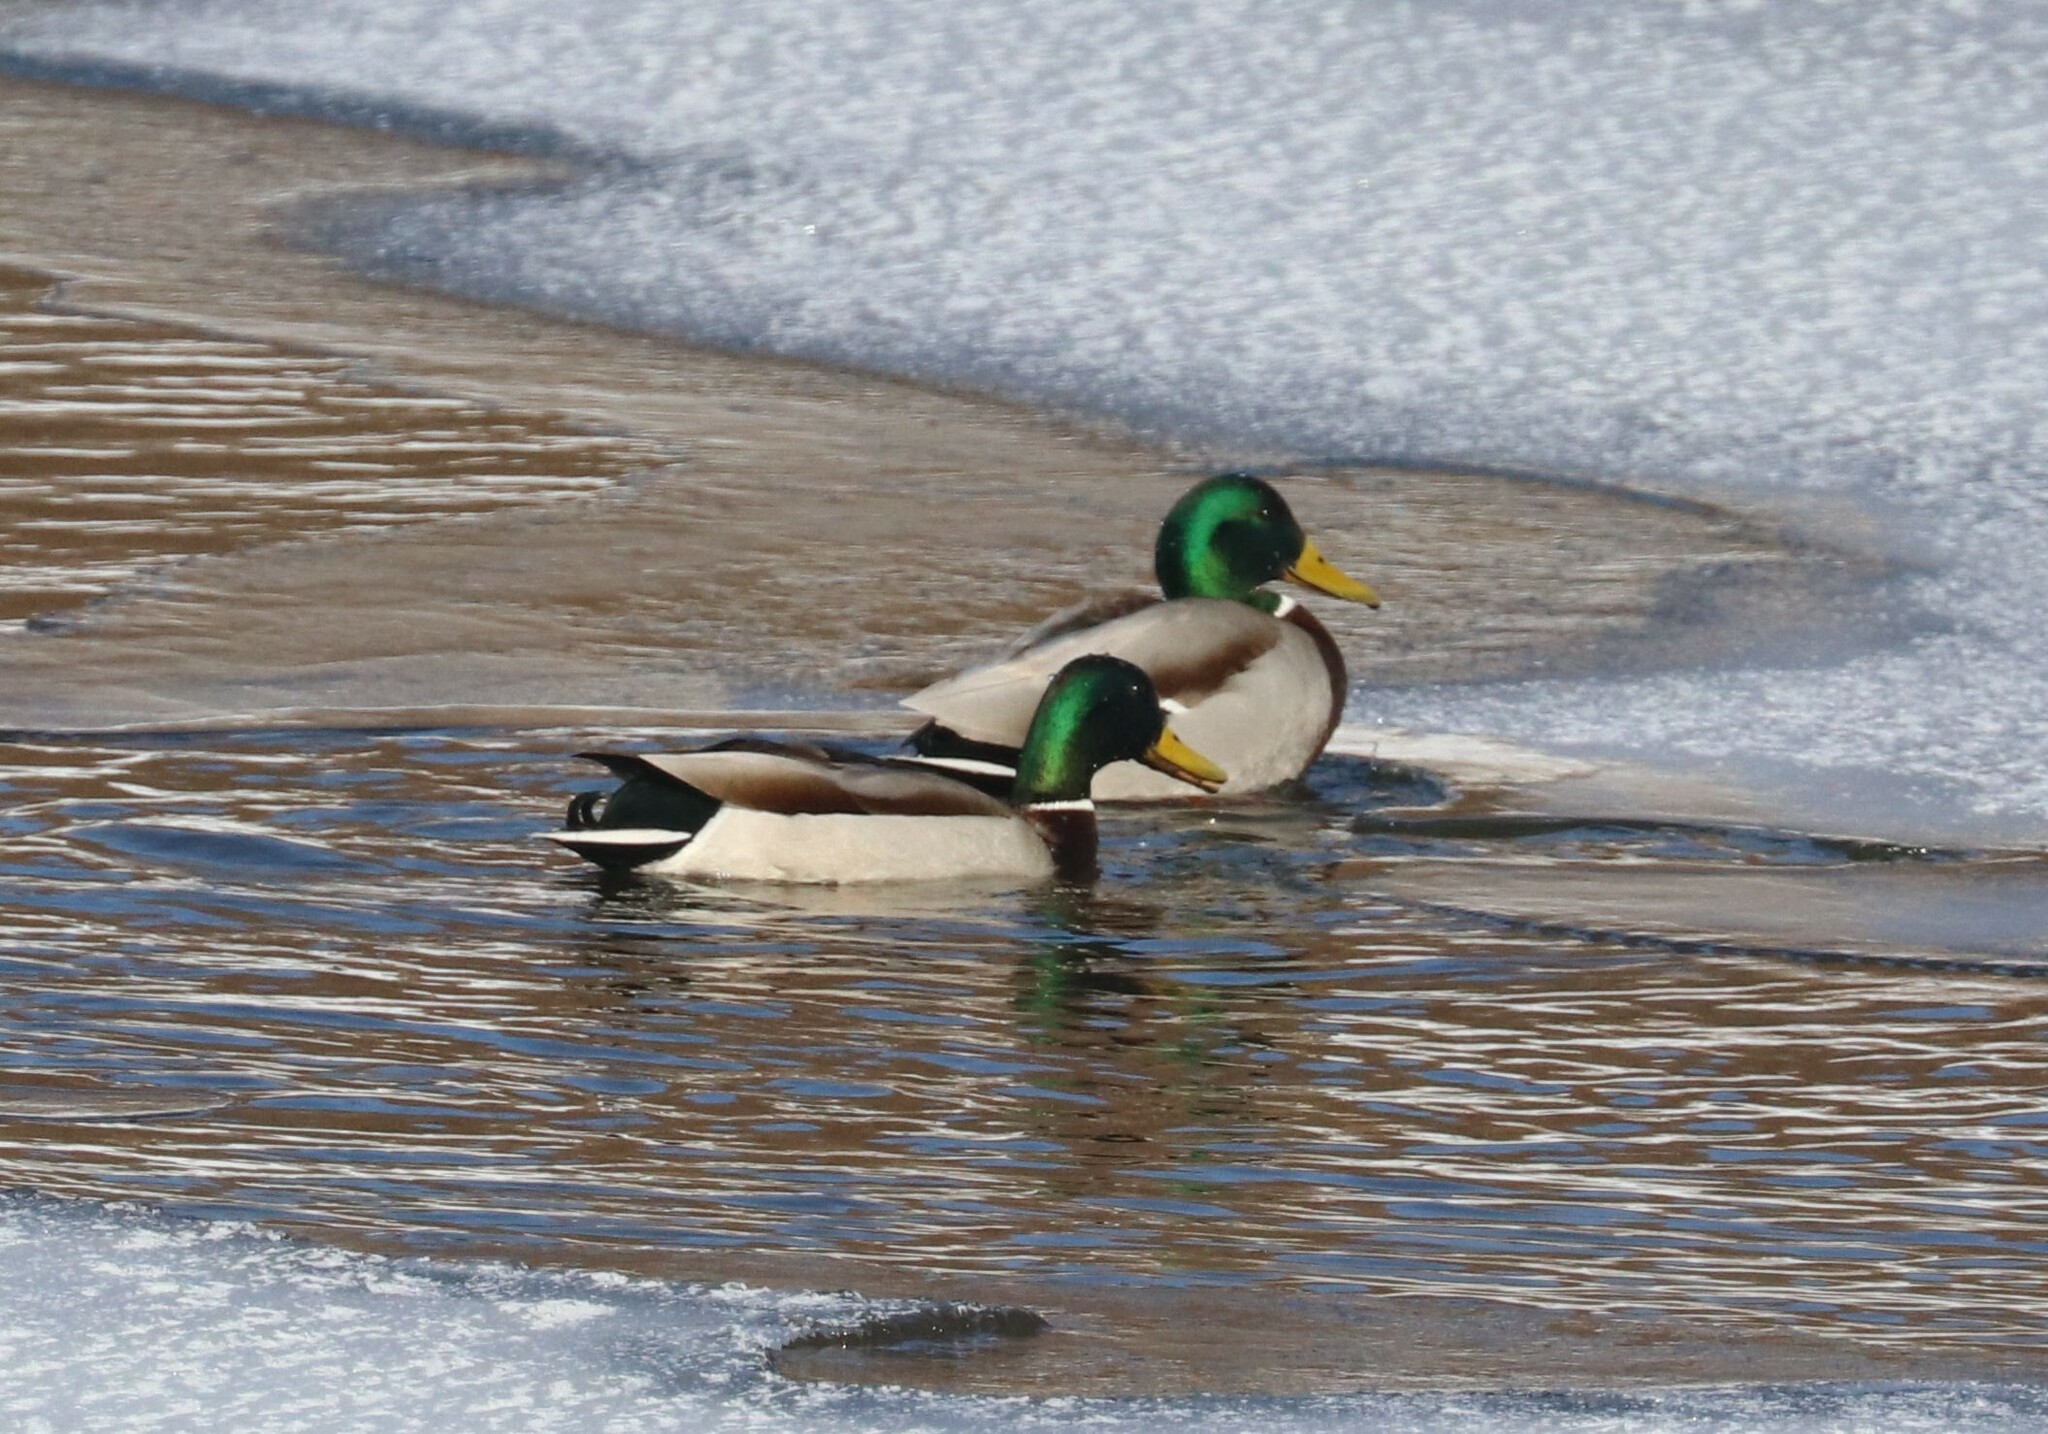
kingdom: Animalia
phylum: Chordata
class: Aves
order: Anseriformes
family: Anatidae
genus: Anas
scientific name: Anas platyrhynchos
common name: Mallard
